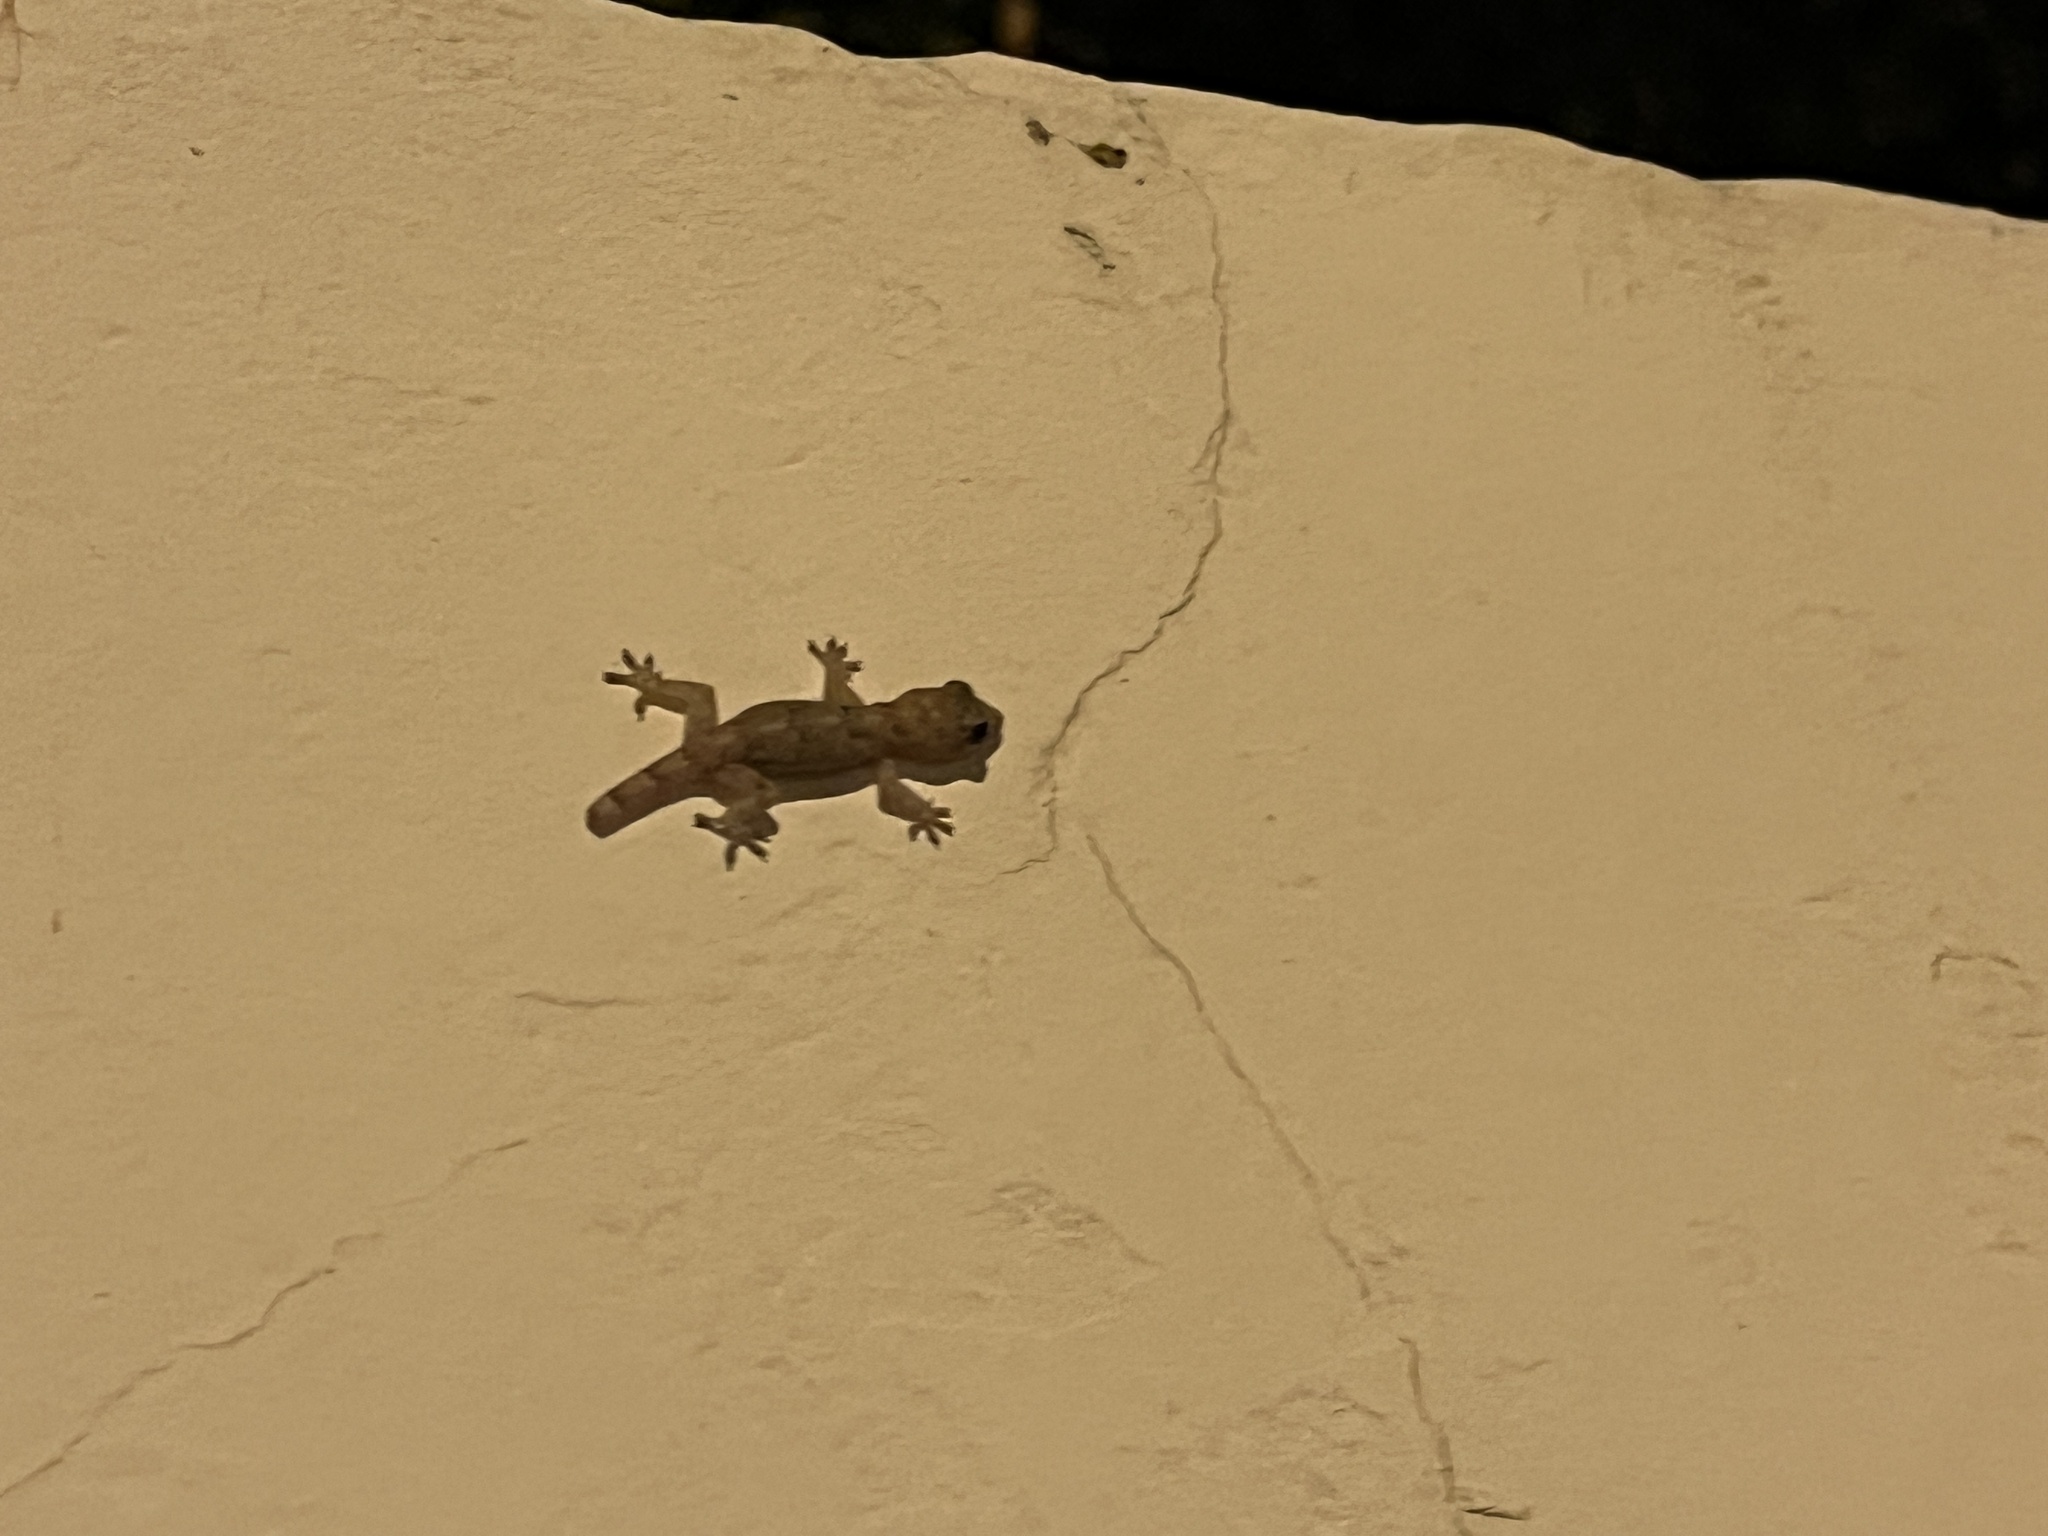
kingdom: Animalia
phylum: Chordata
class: Squamata
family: Gekkonidae
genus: Hemidactylus
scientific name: Hemidactylus mabouia
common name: House gecko
